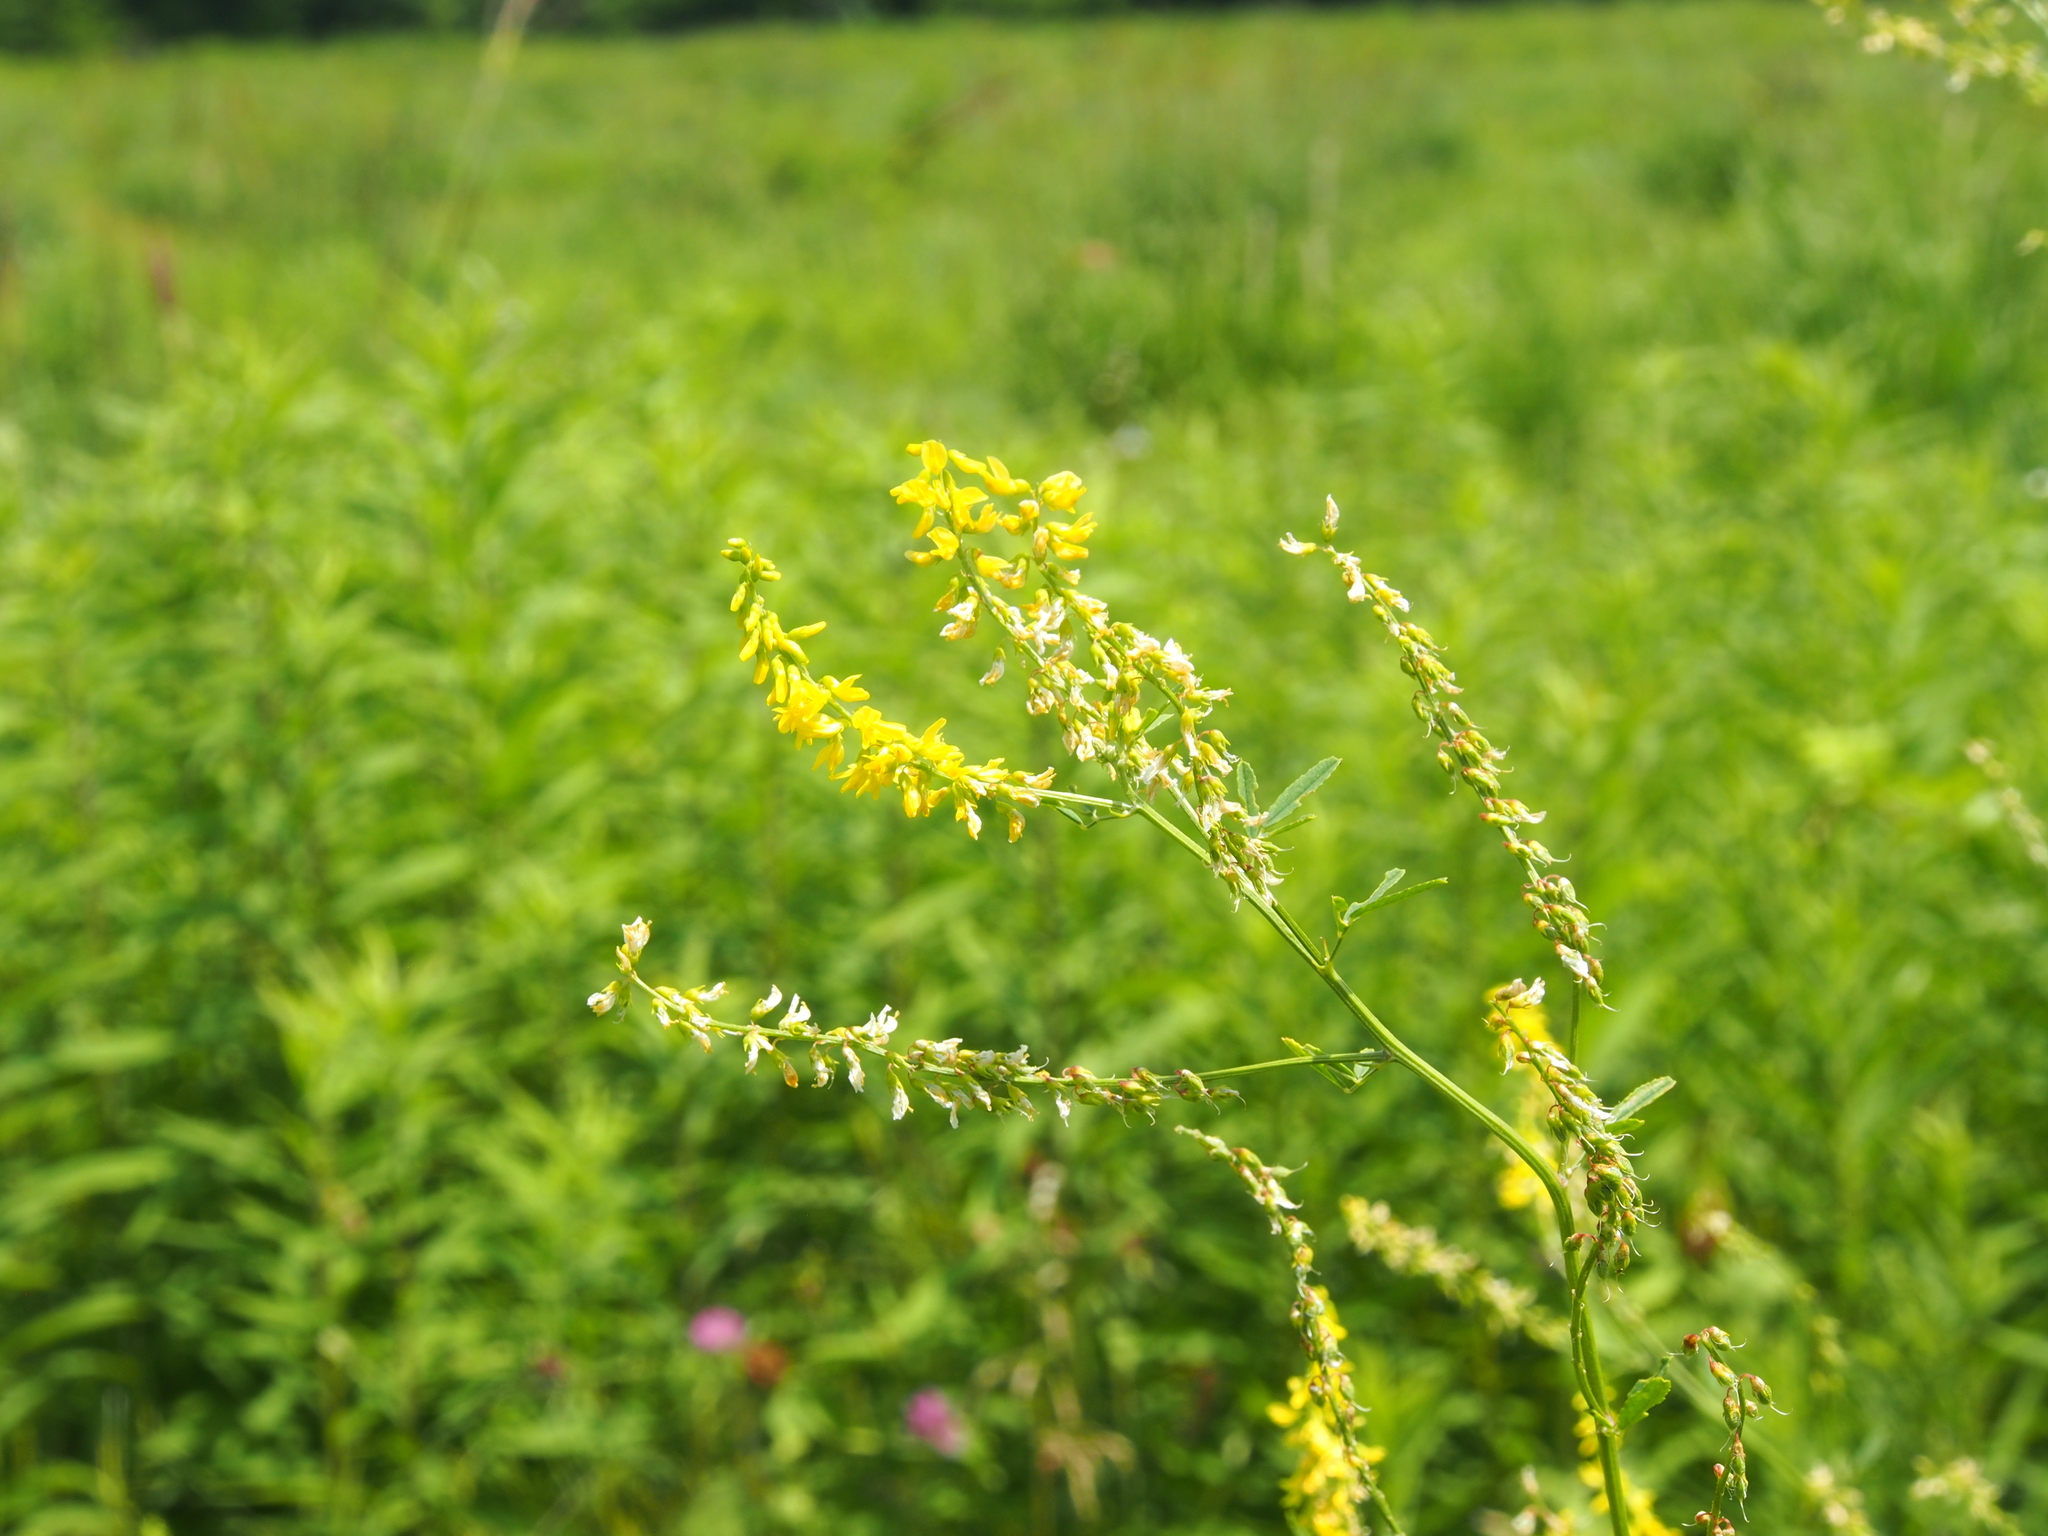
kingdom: Plantae
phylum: Tracheophyta
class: Magnoliopsida
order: Fabales
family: Fabaceae
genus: Melilotus
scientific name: Melilotus officinalis
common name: Sweetclover
